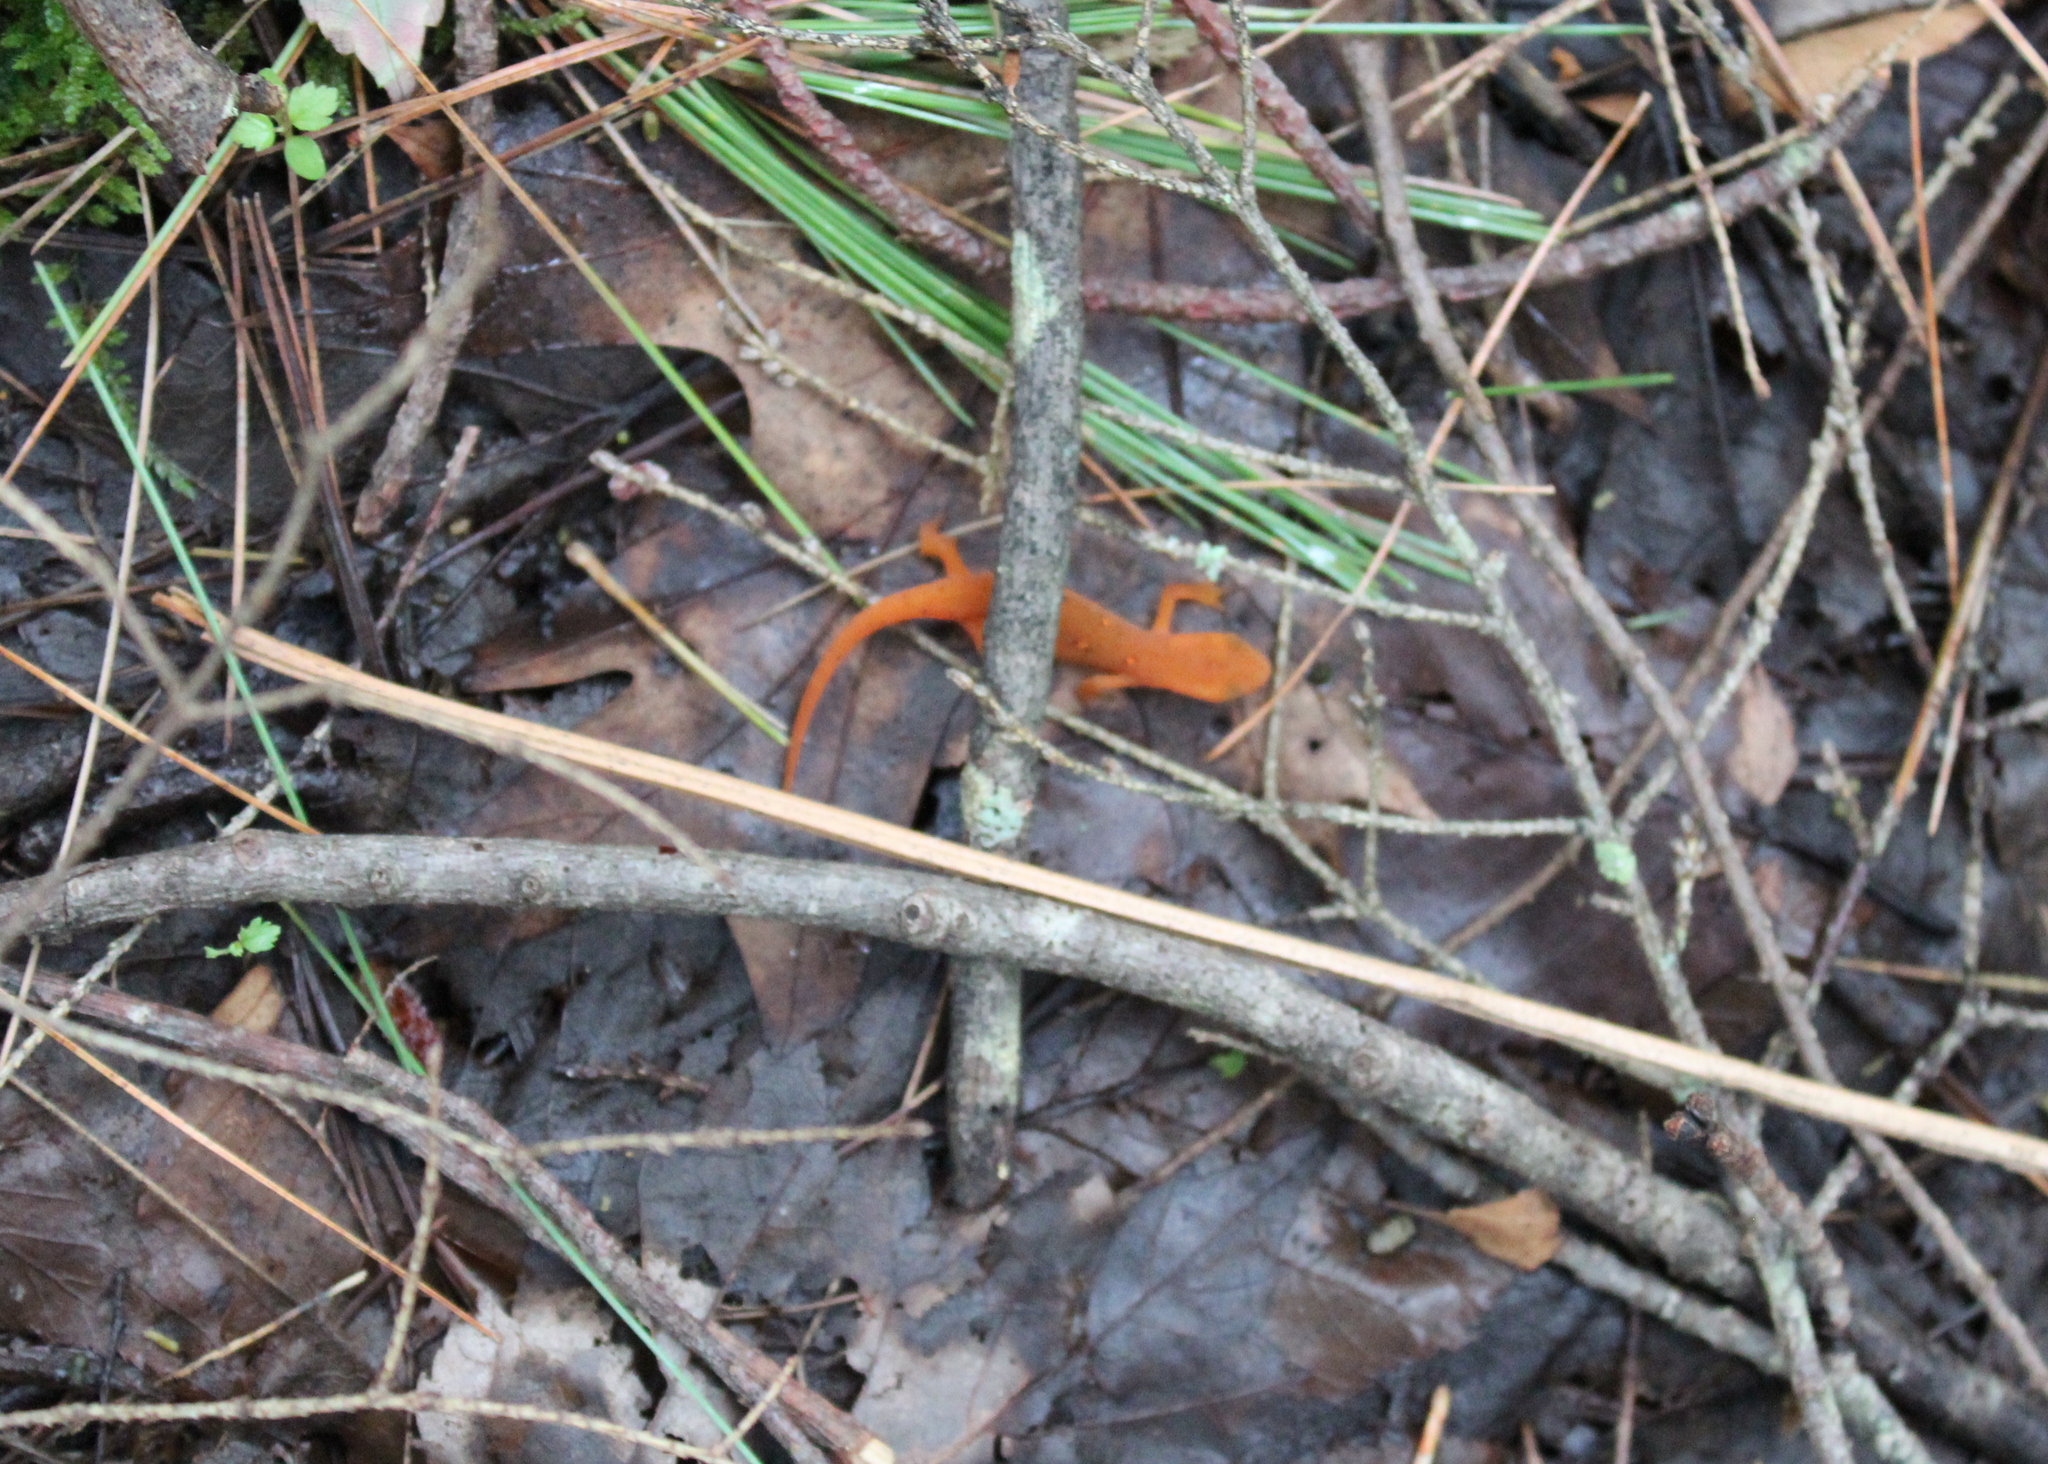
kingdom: Animalia
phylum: Chordata
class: Amphibia
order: Caudata
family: Salamandridae
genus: Notophthalmus
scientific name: Notophthalmus viridescens
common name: Eastern newt
